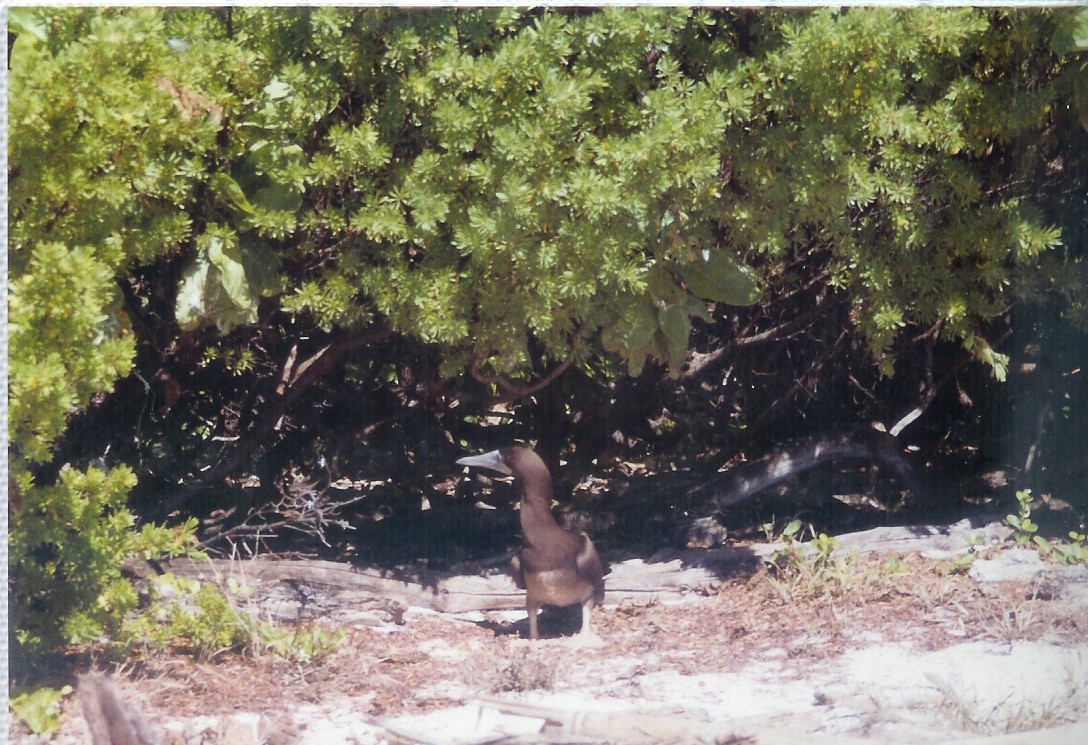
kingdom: Animalia
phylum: Chordata
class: Aves
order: Suliformes
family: Sulidae
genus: Sula
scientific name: Sula leucogaster
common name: Brown booby
